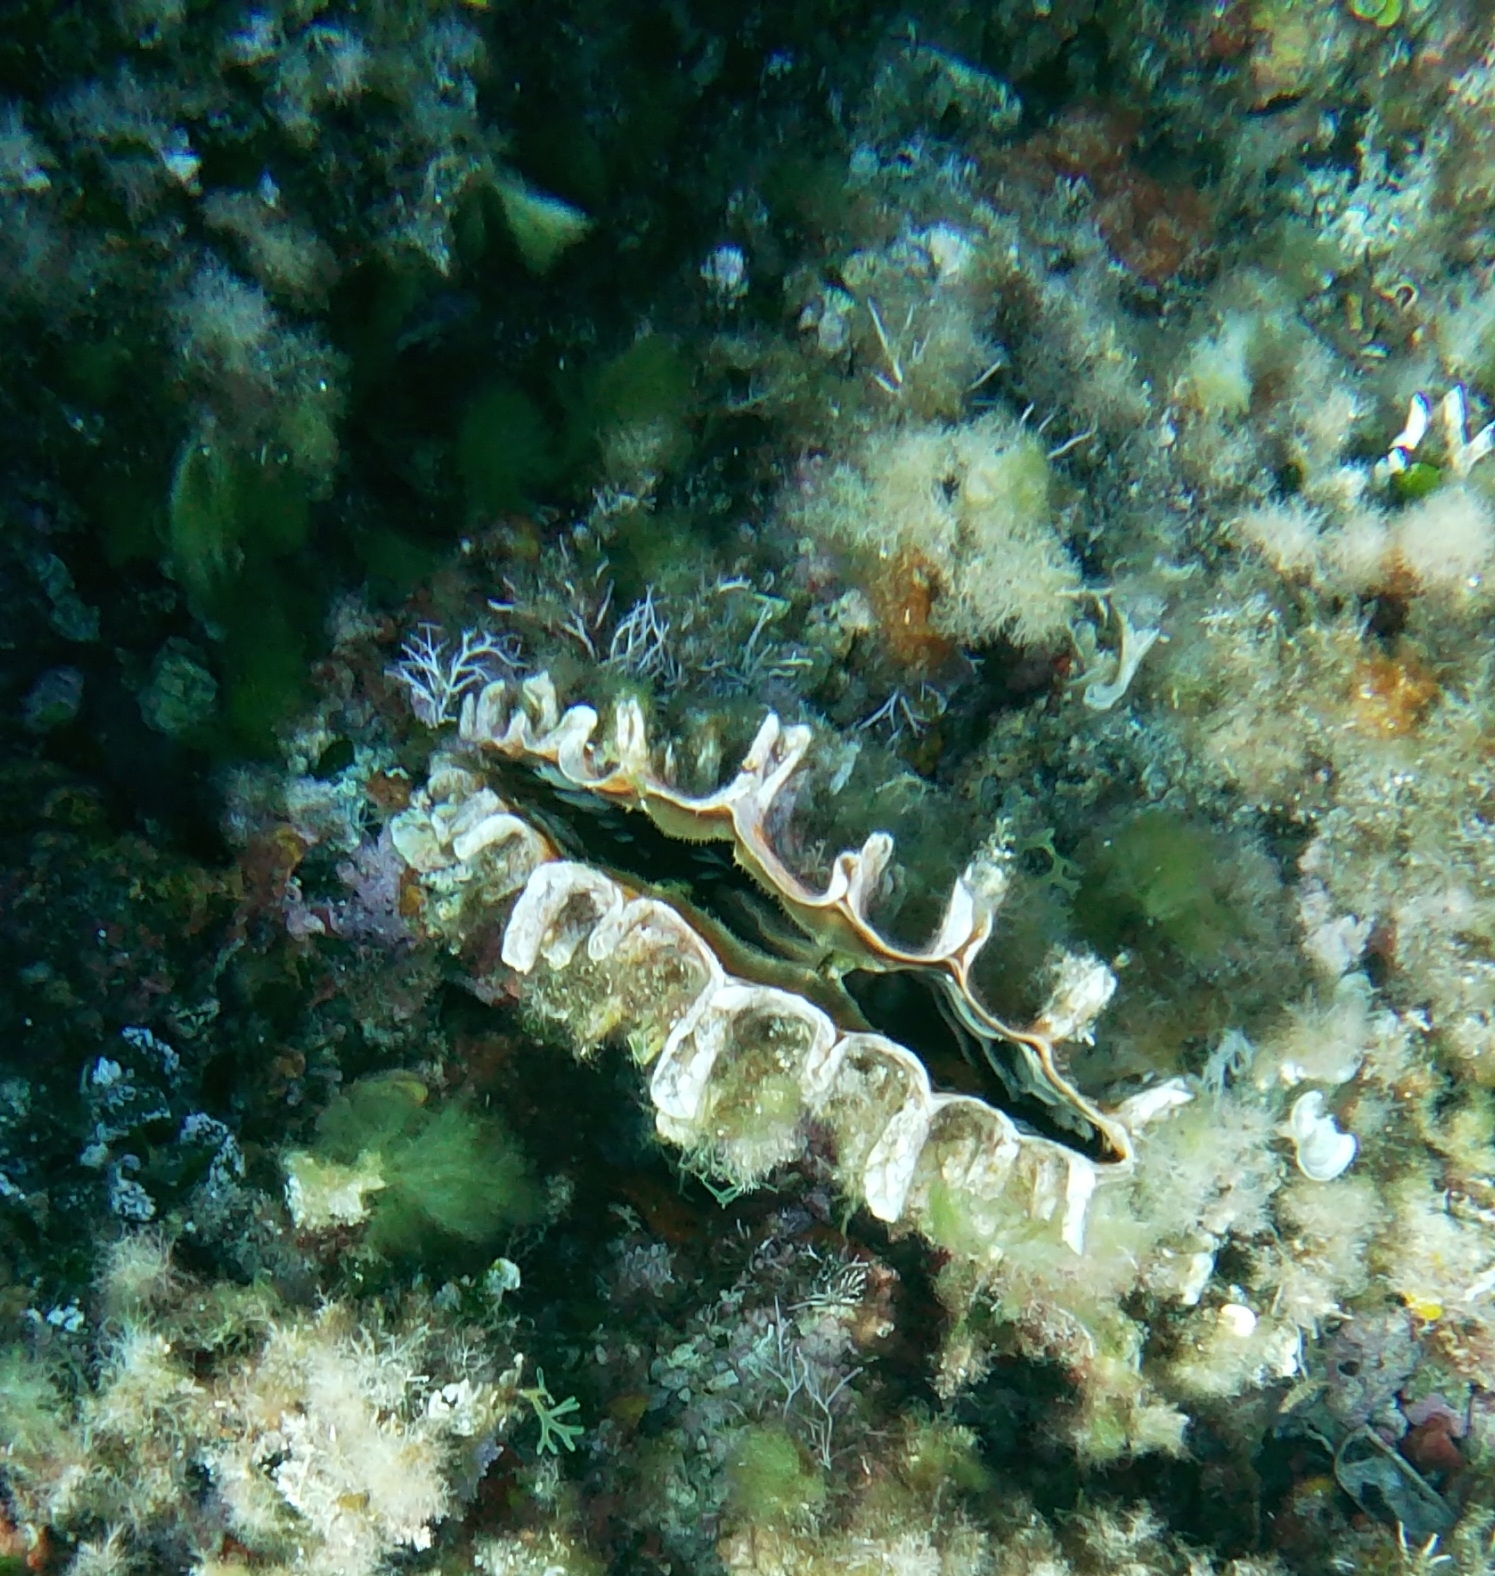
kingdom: Animalia
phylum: Mollusca
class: Bivalvia
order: Ostreida
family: Pinnidae
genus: Pinna
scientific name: Pinna rudis
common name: Rough penshell
